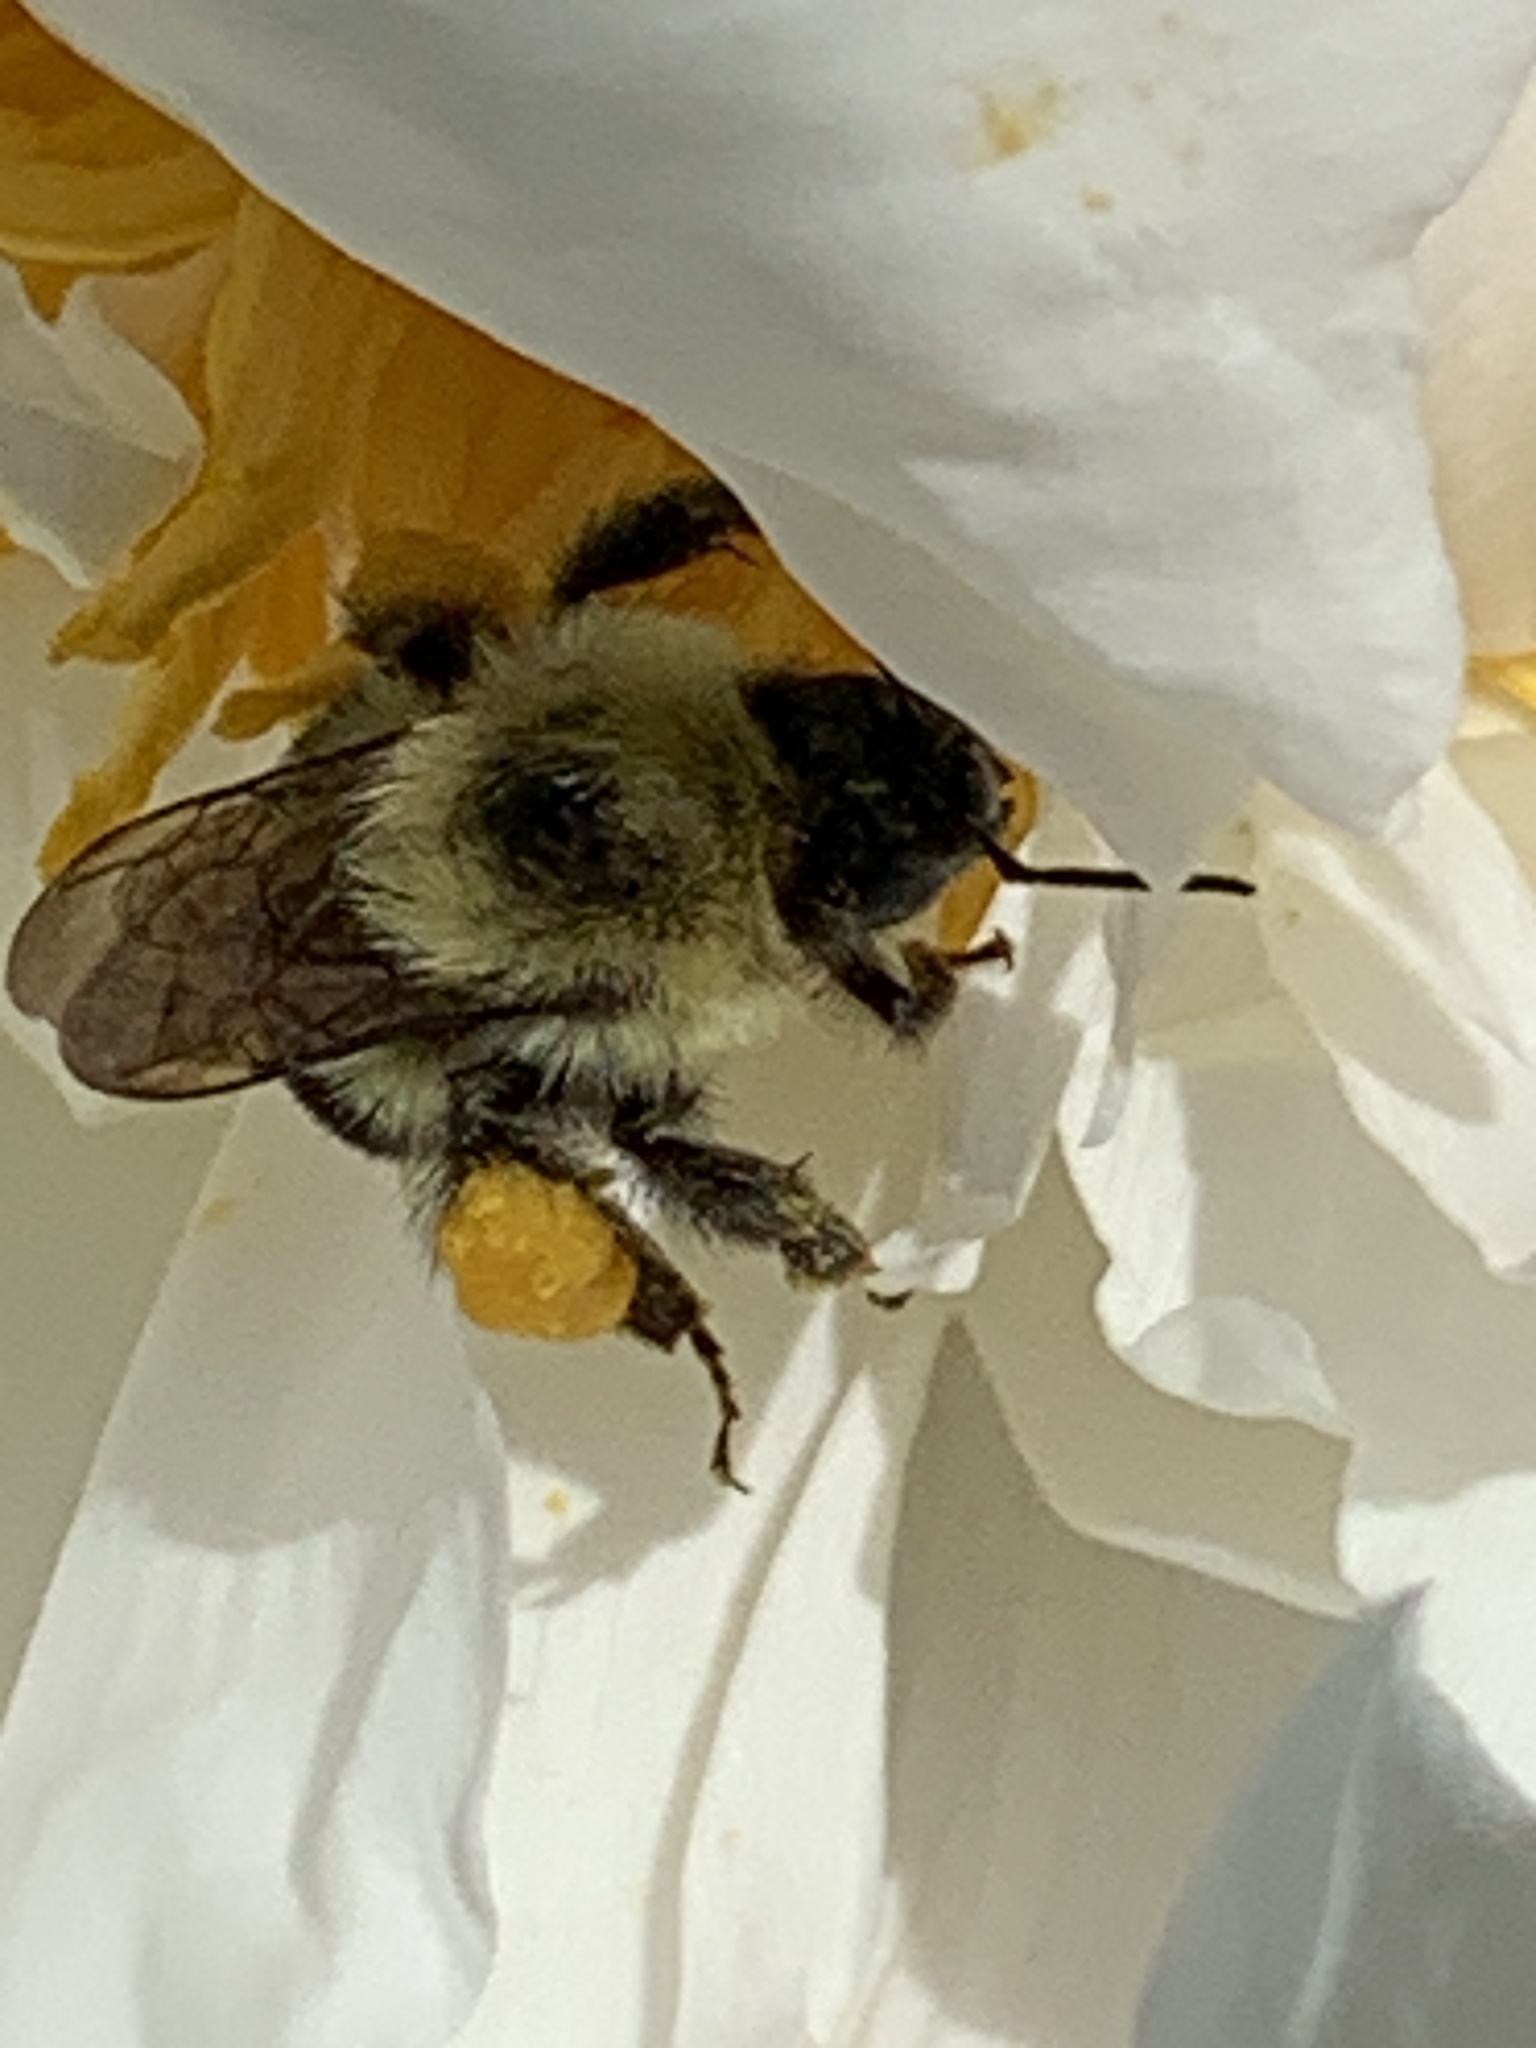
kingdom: Animalia
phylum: Arthropoda
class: Insecta
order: Hymenoptera
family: Apidae
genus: Bombus
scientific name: Bombus bimaculatus
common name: Two-spotted bumble bee
